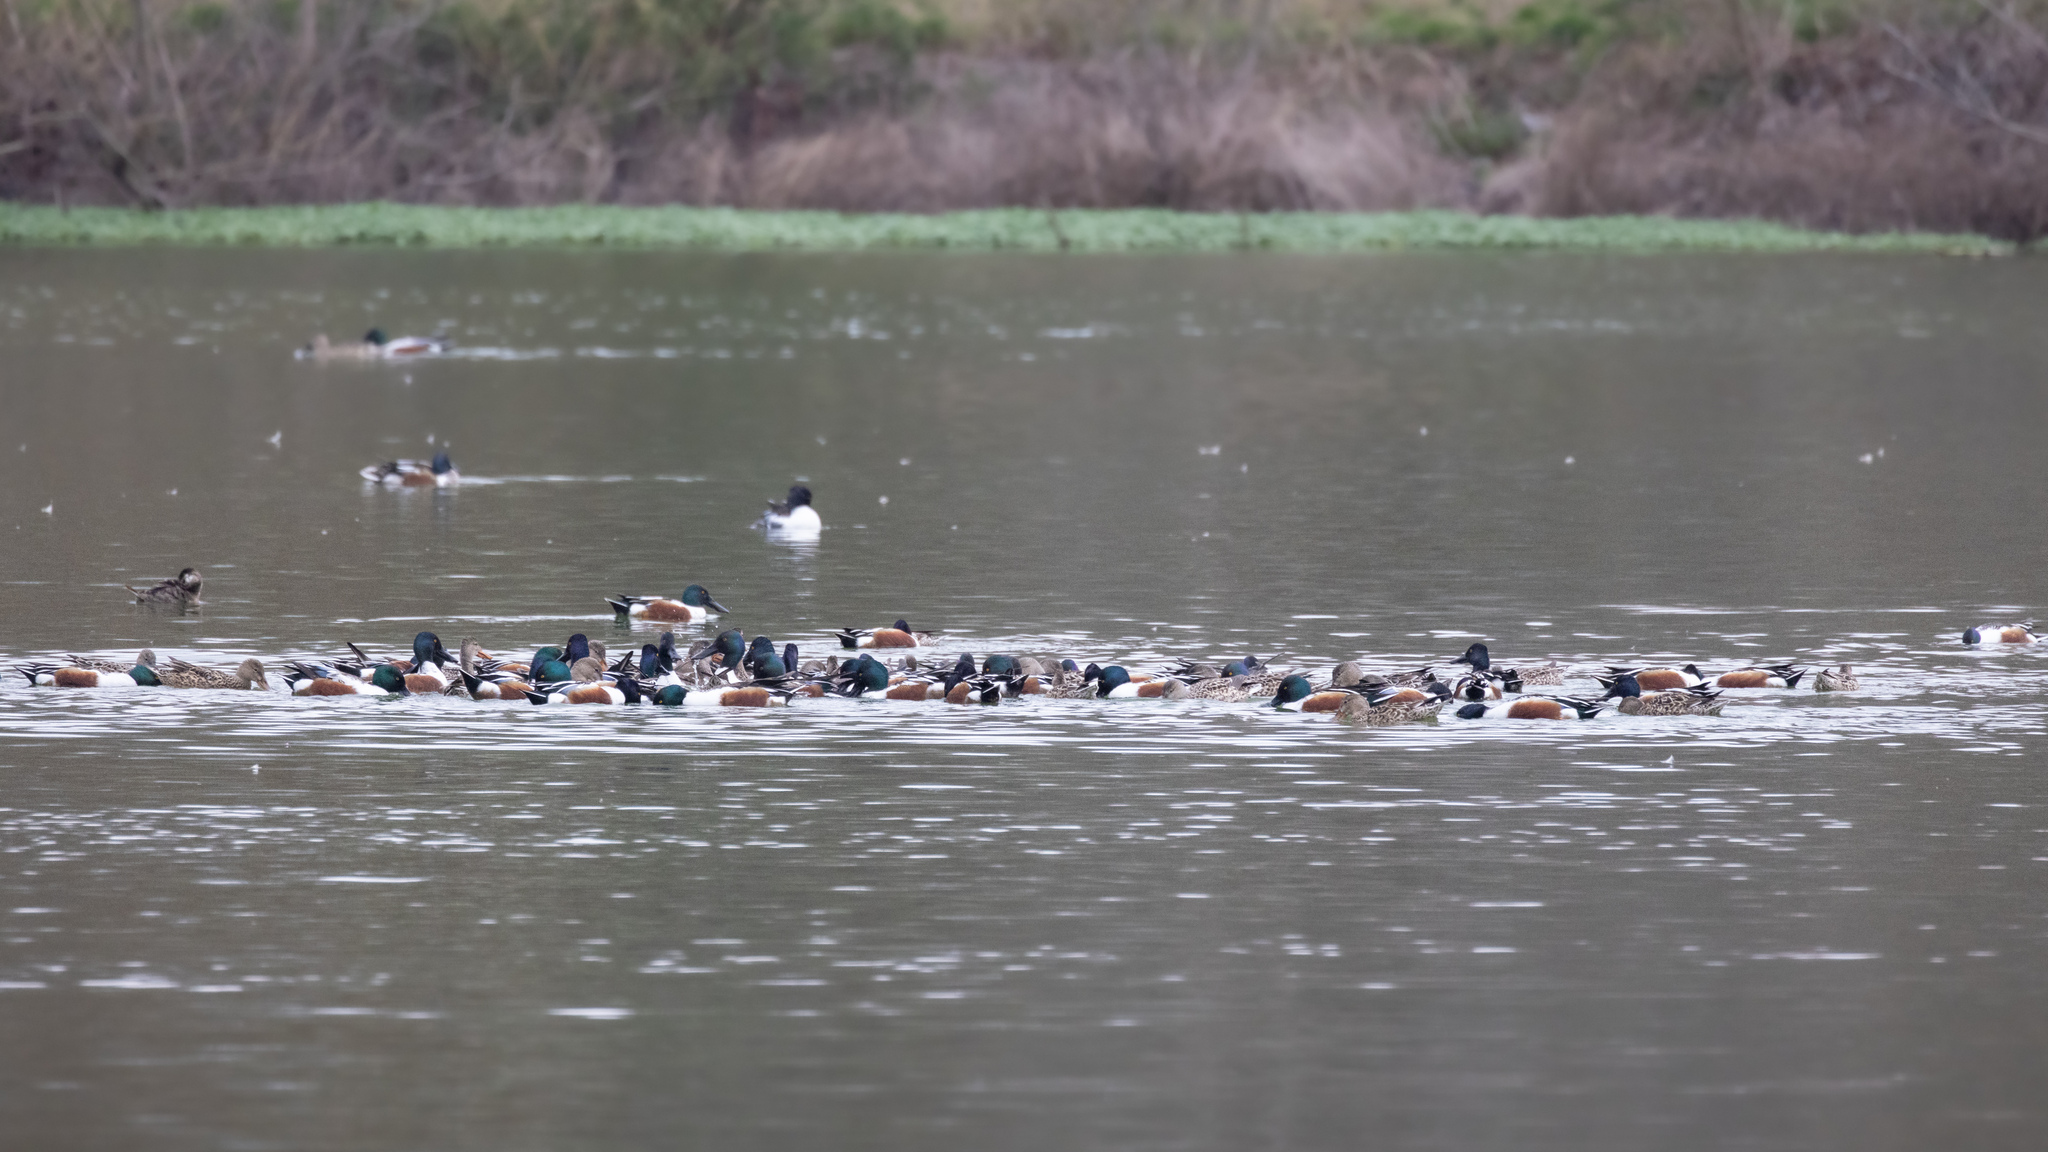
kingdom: Animalia
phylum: Chordata
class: Aves
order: Anseriformes
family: Anatidae
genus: Spatula
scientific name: Spatula clypeata
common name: Northern shoveler
